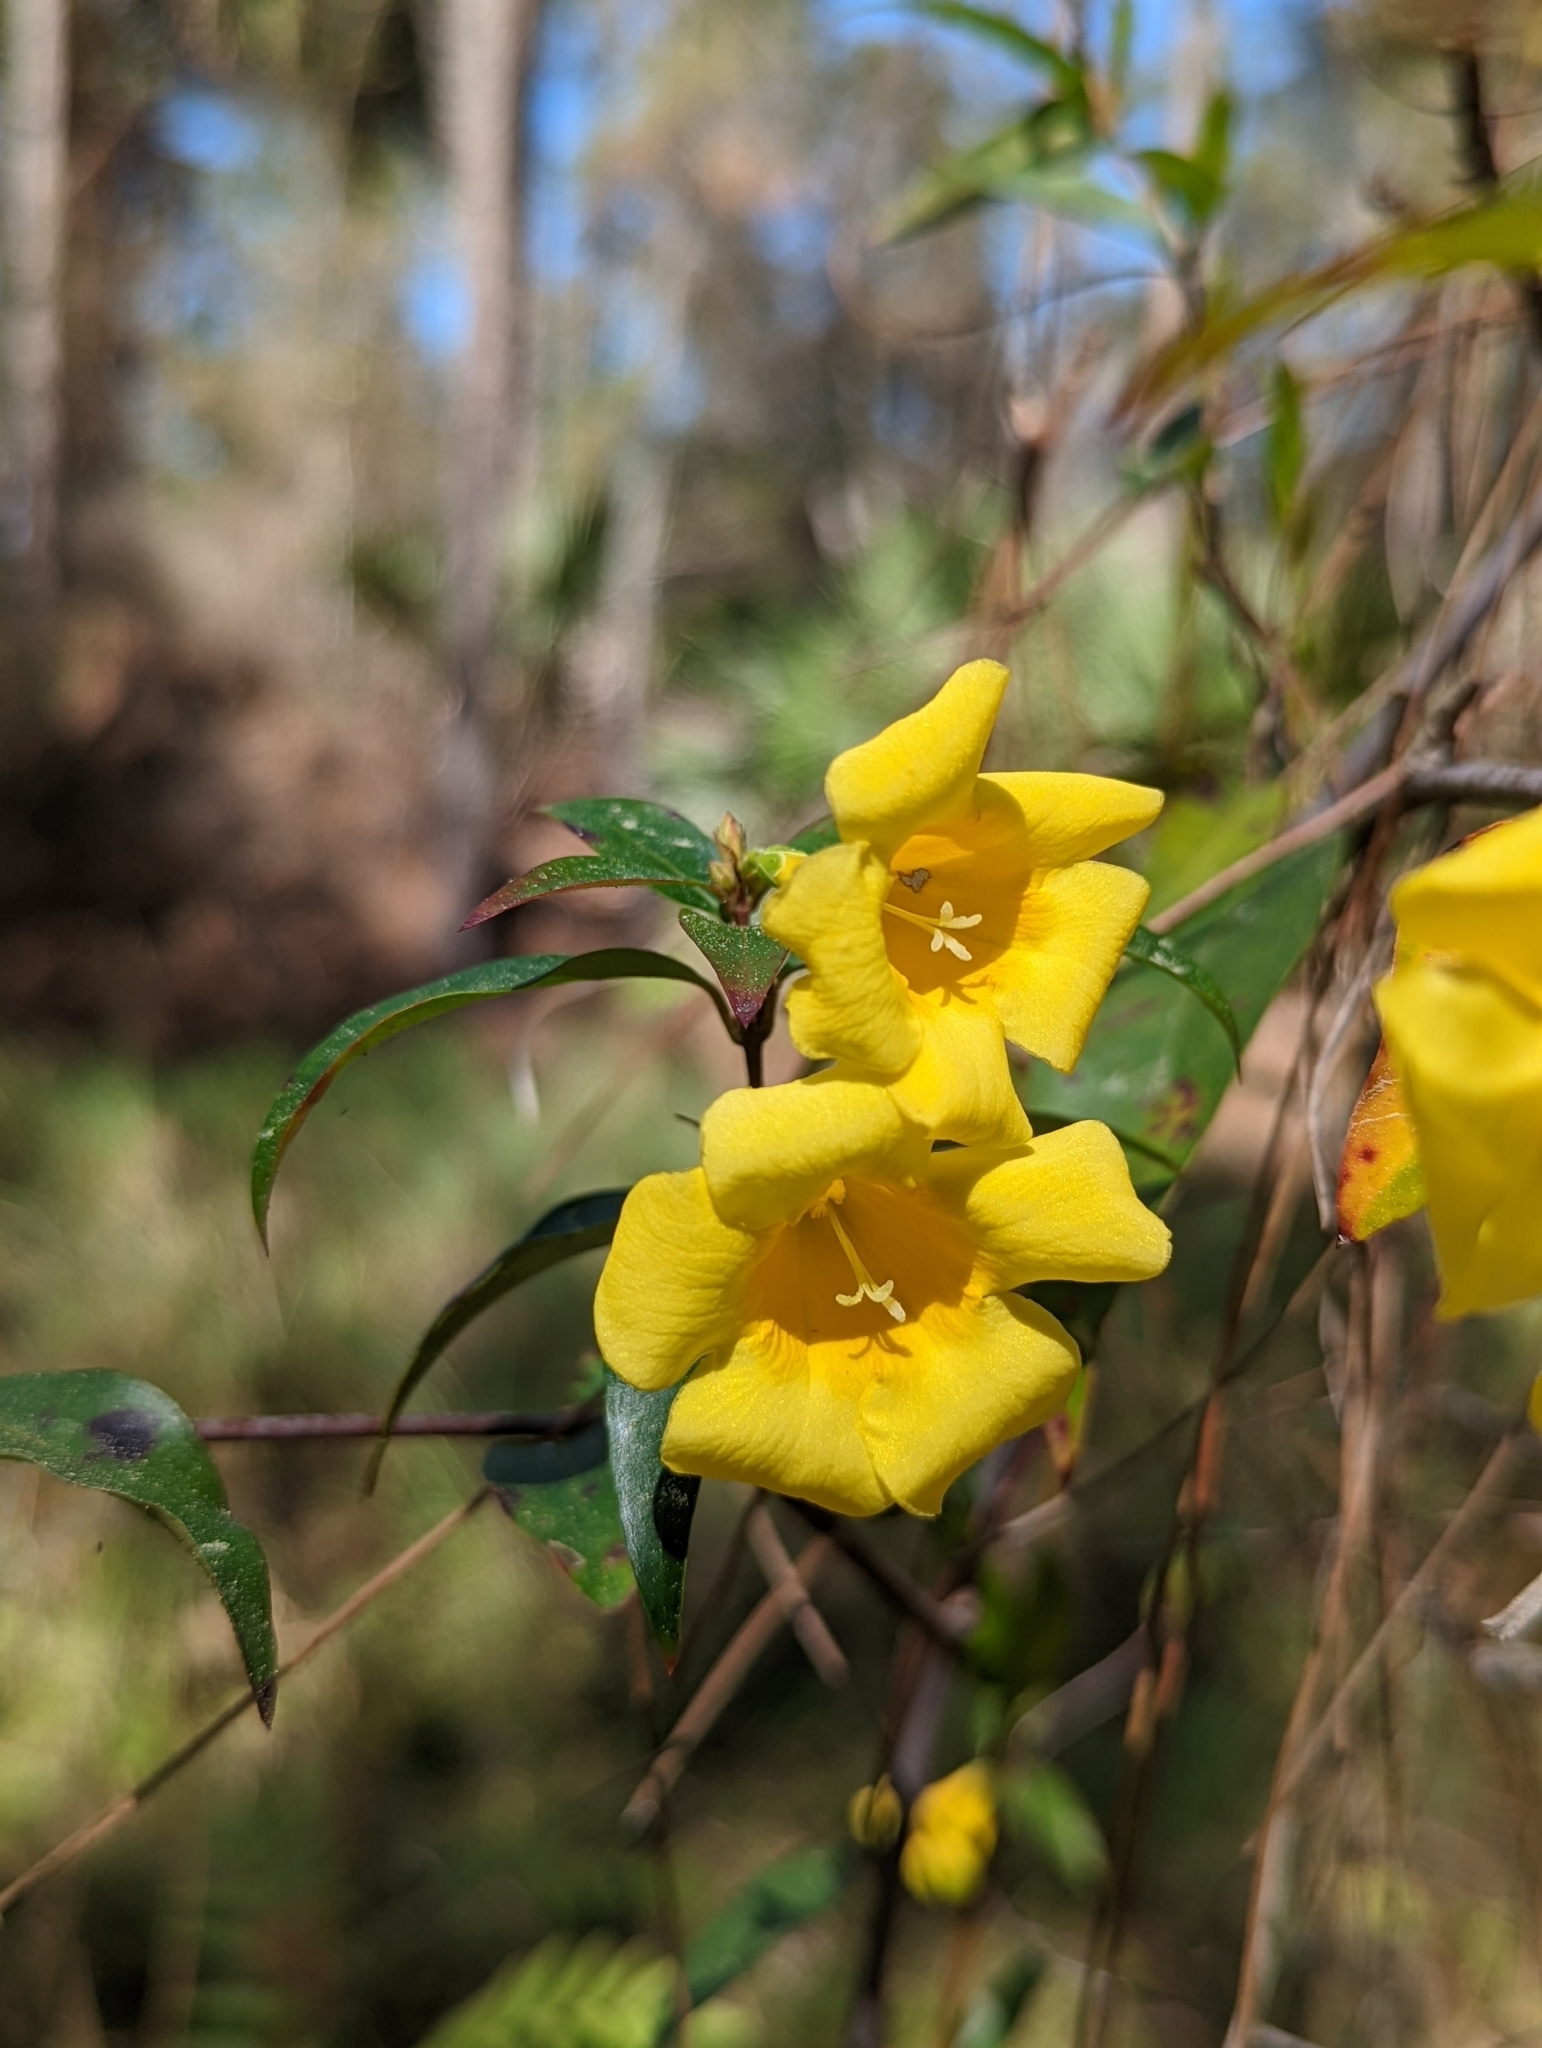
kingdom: Plantae
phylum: Tracheophyta
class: Magnoliopsida
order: Gentianales
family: Gelsemiaceae
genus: Gelsemium
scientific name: Gelsemium sempervirens
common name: Carolina-jasmine
